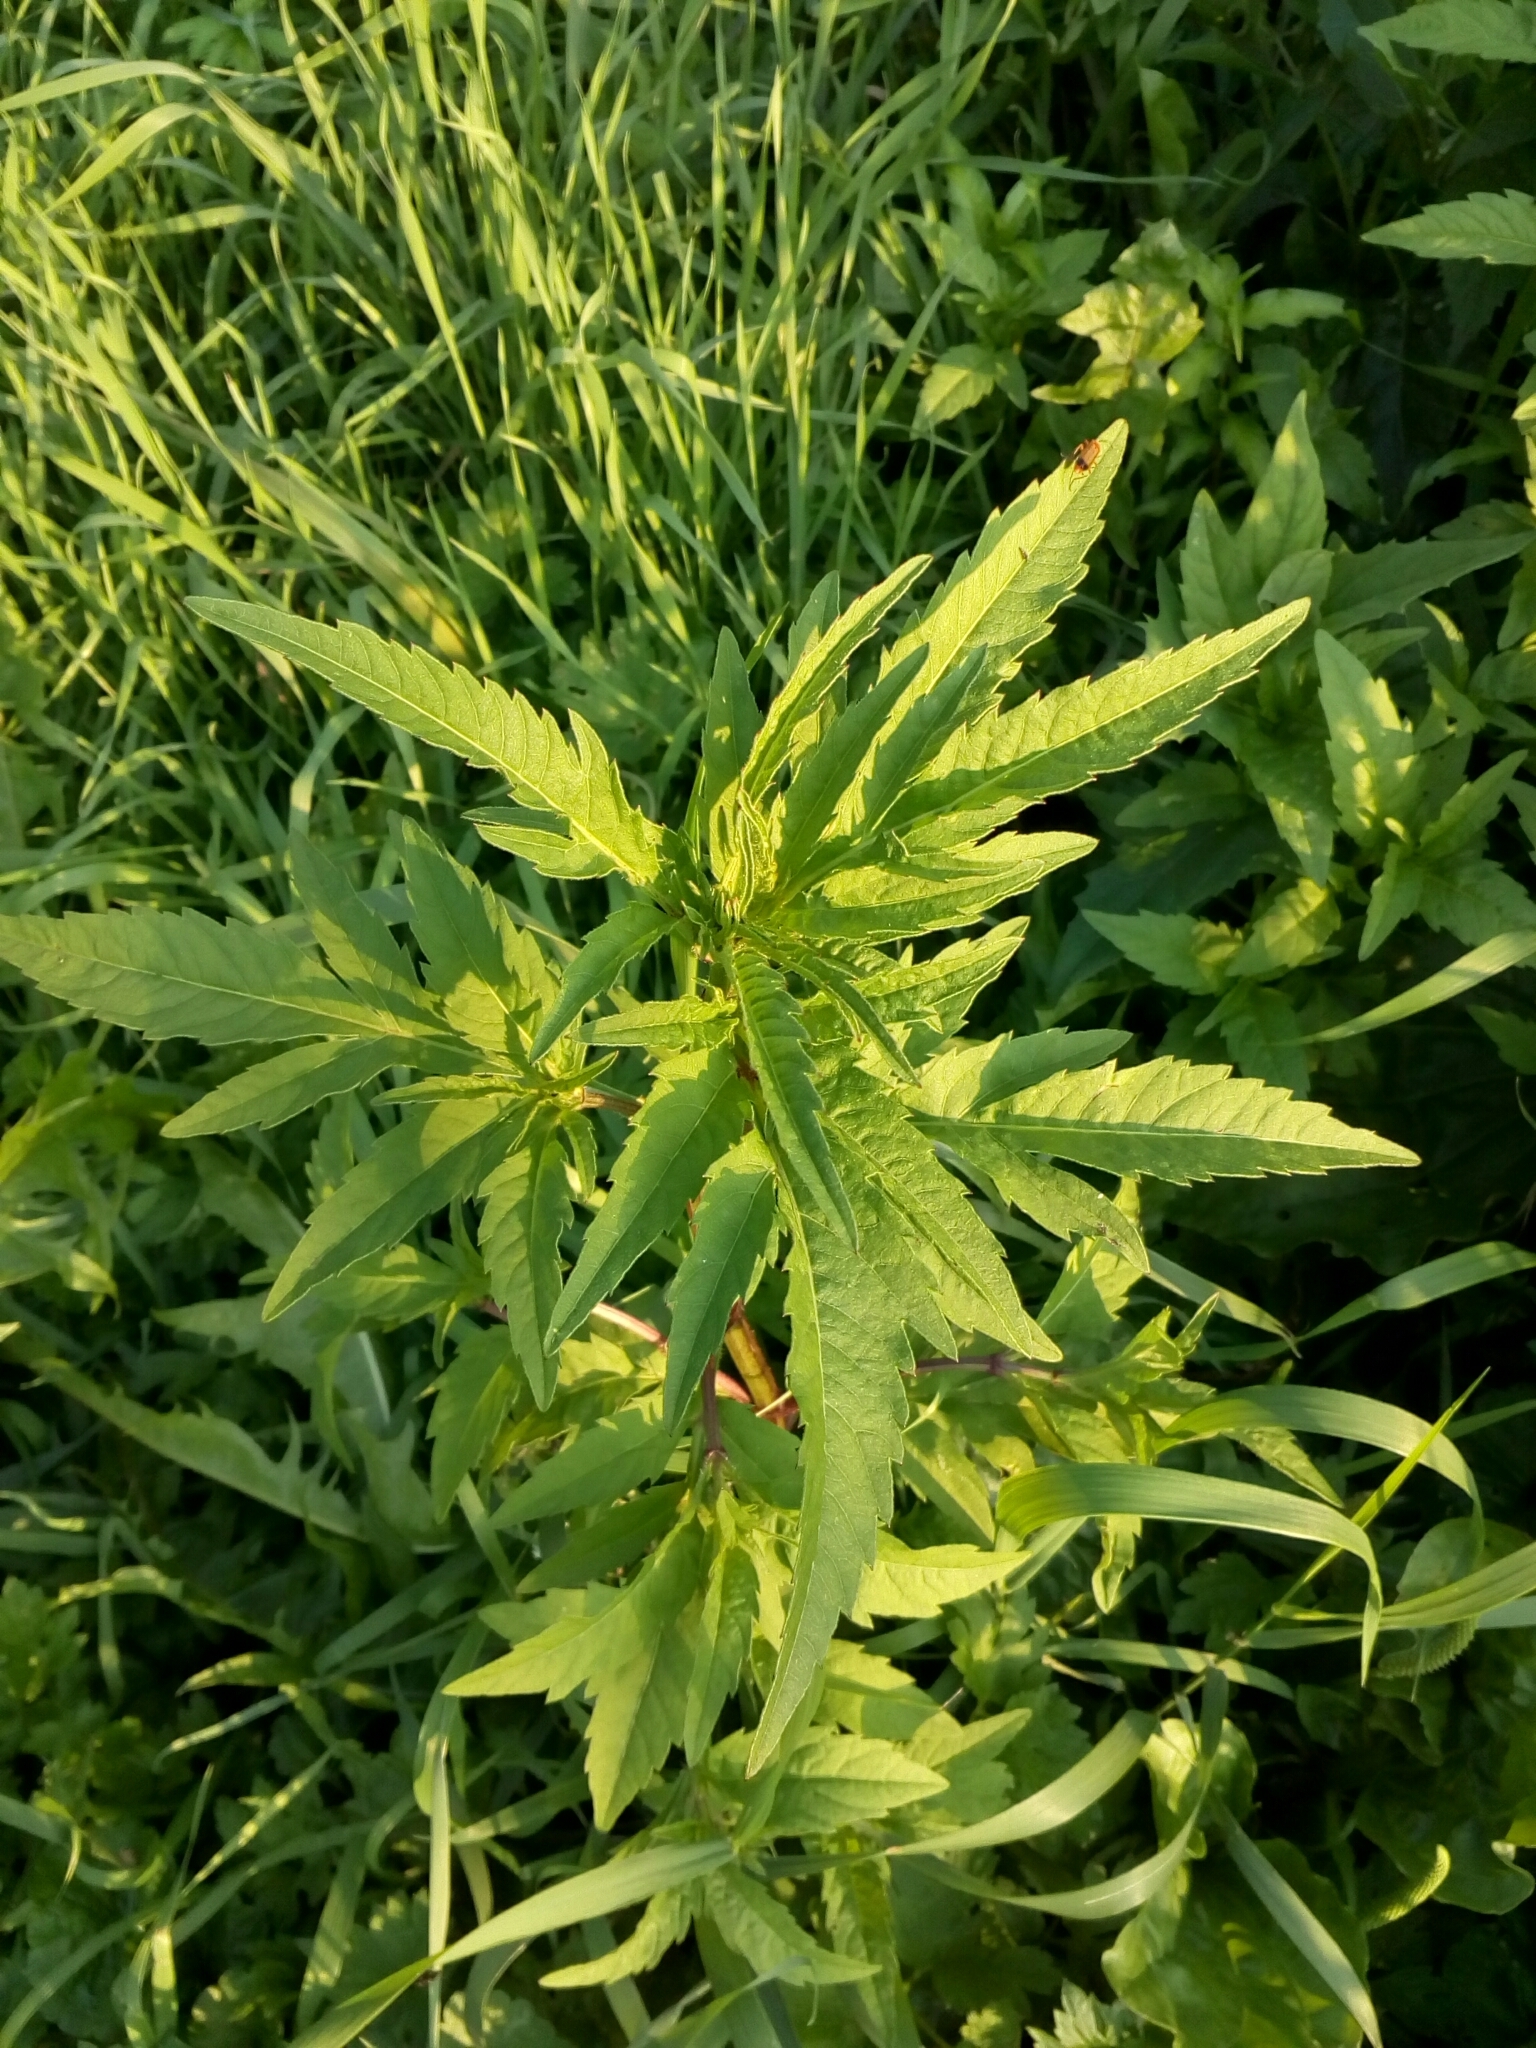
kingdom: Plantae
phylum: Tracheophyta
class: Magnoliopsida
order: Asterales
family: Asteraceae
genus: Bidens
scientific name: Bidens tripartita
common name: Trifid bur-marigold
